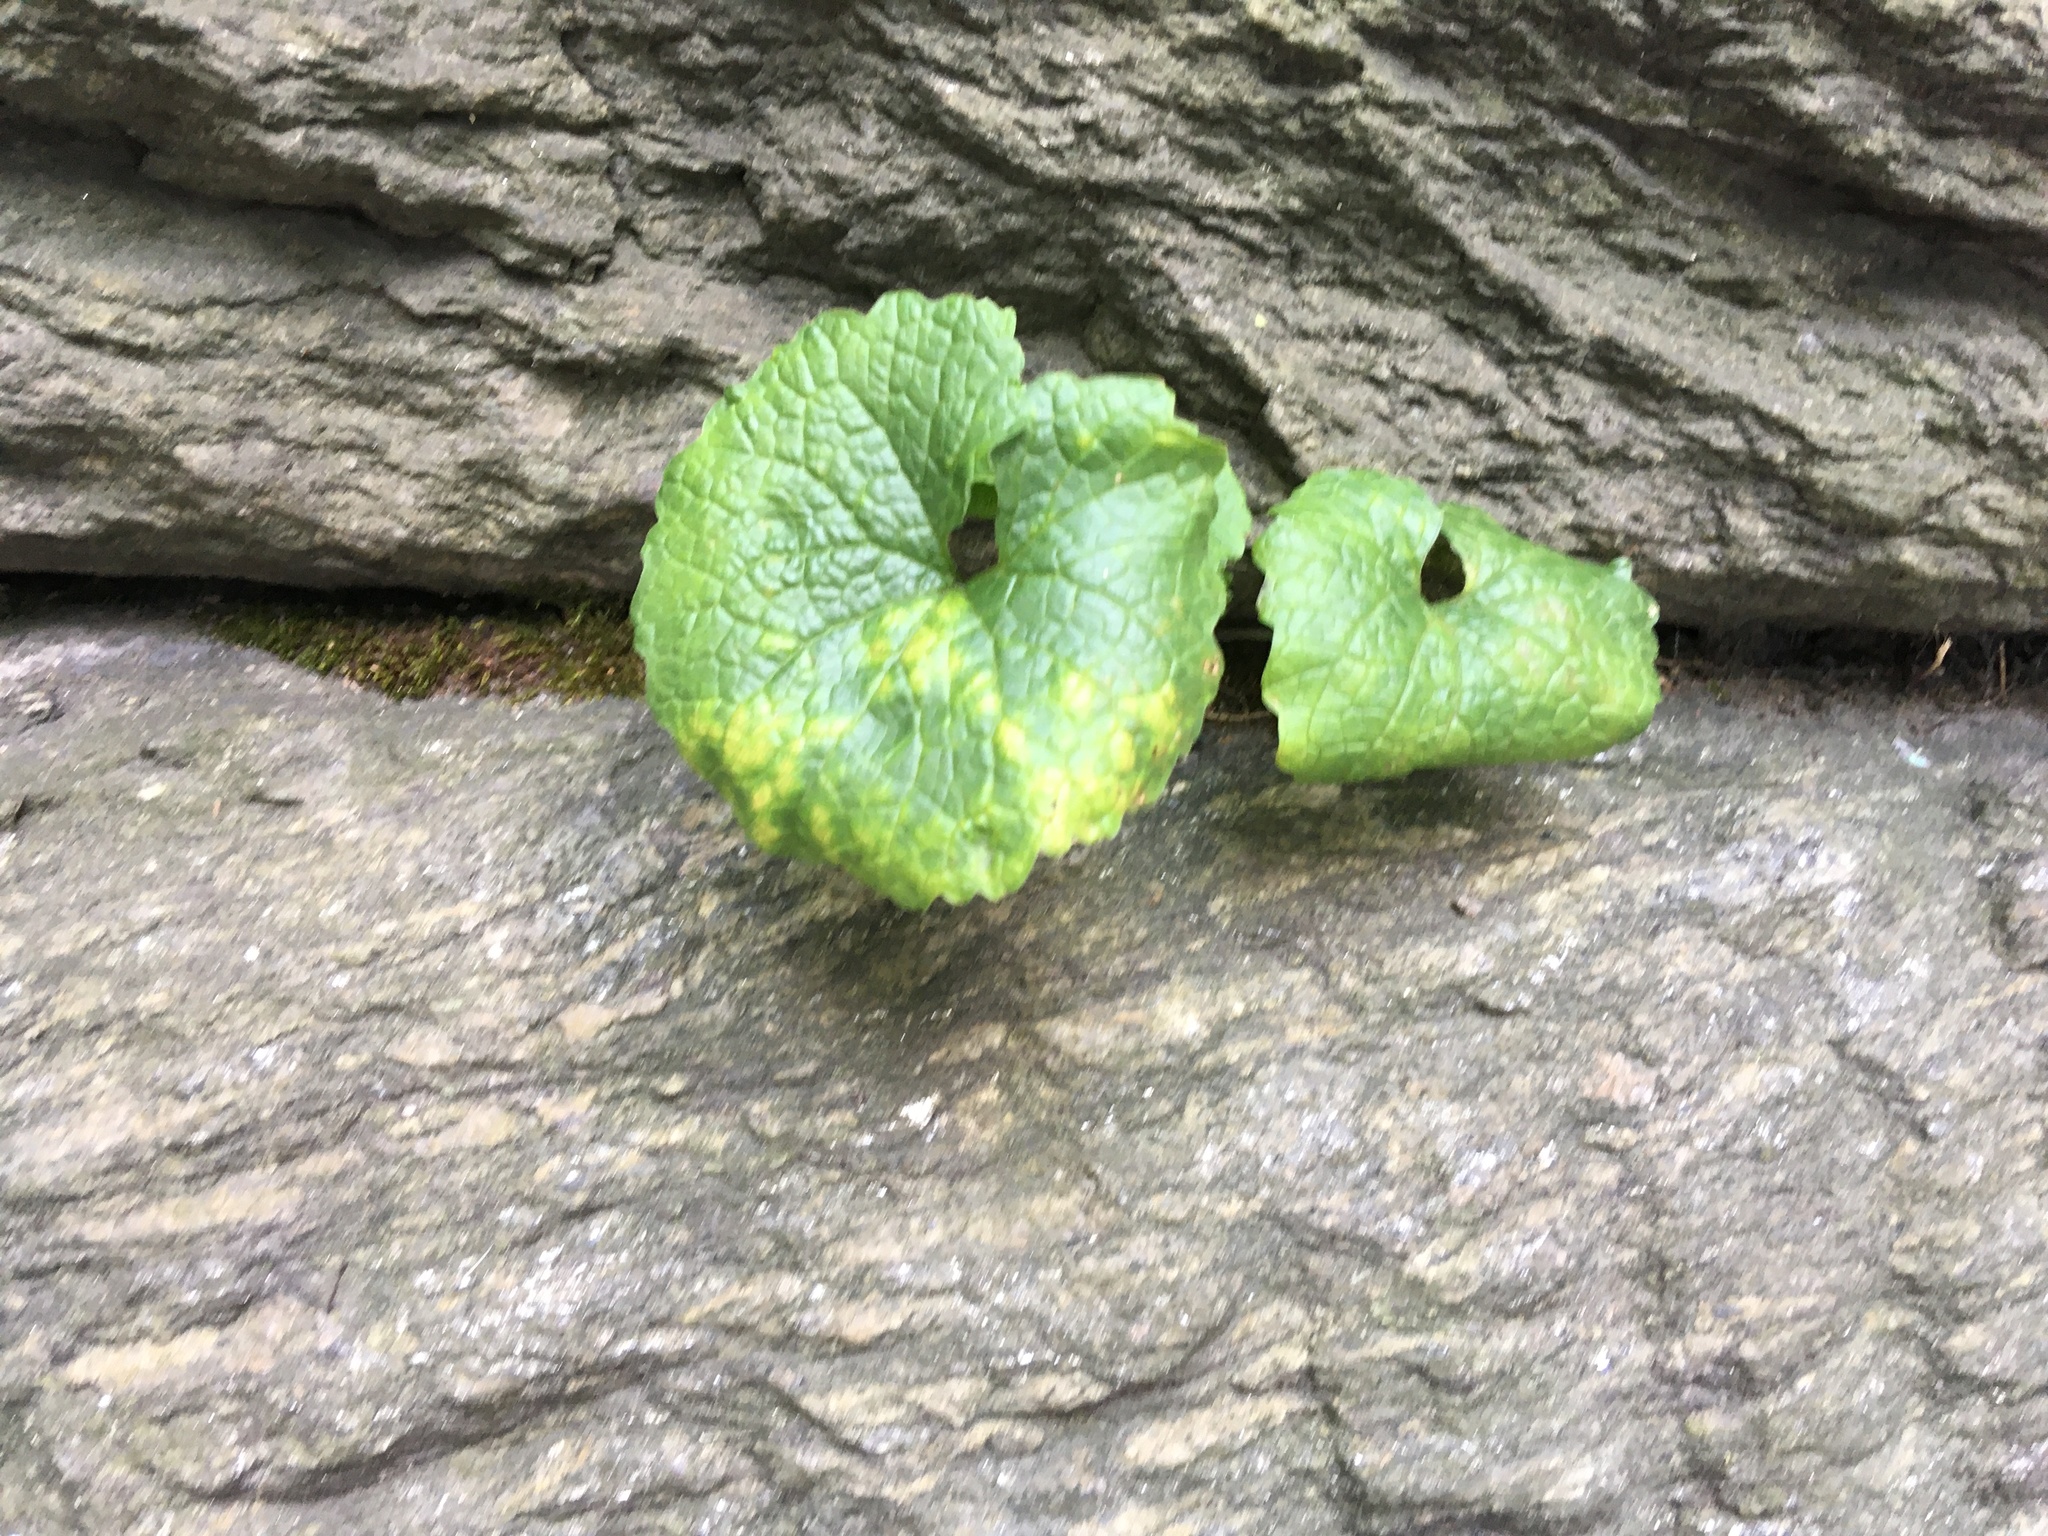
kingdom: Plantae
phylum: Tracheophyta
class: Magnoliopsida
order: Brassicales
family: Brassicaceae
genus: Alliaria
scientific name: Alliaria petiolata
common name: Garlic mustard
